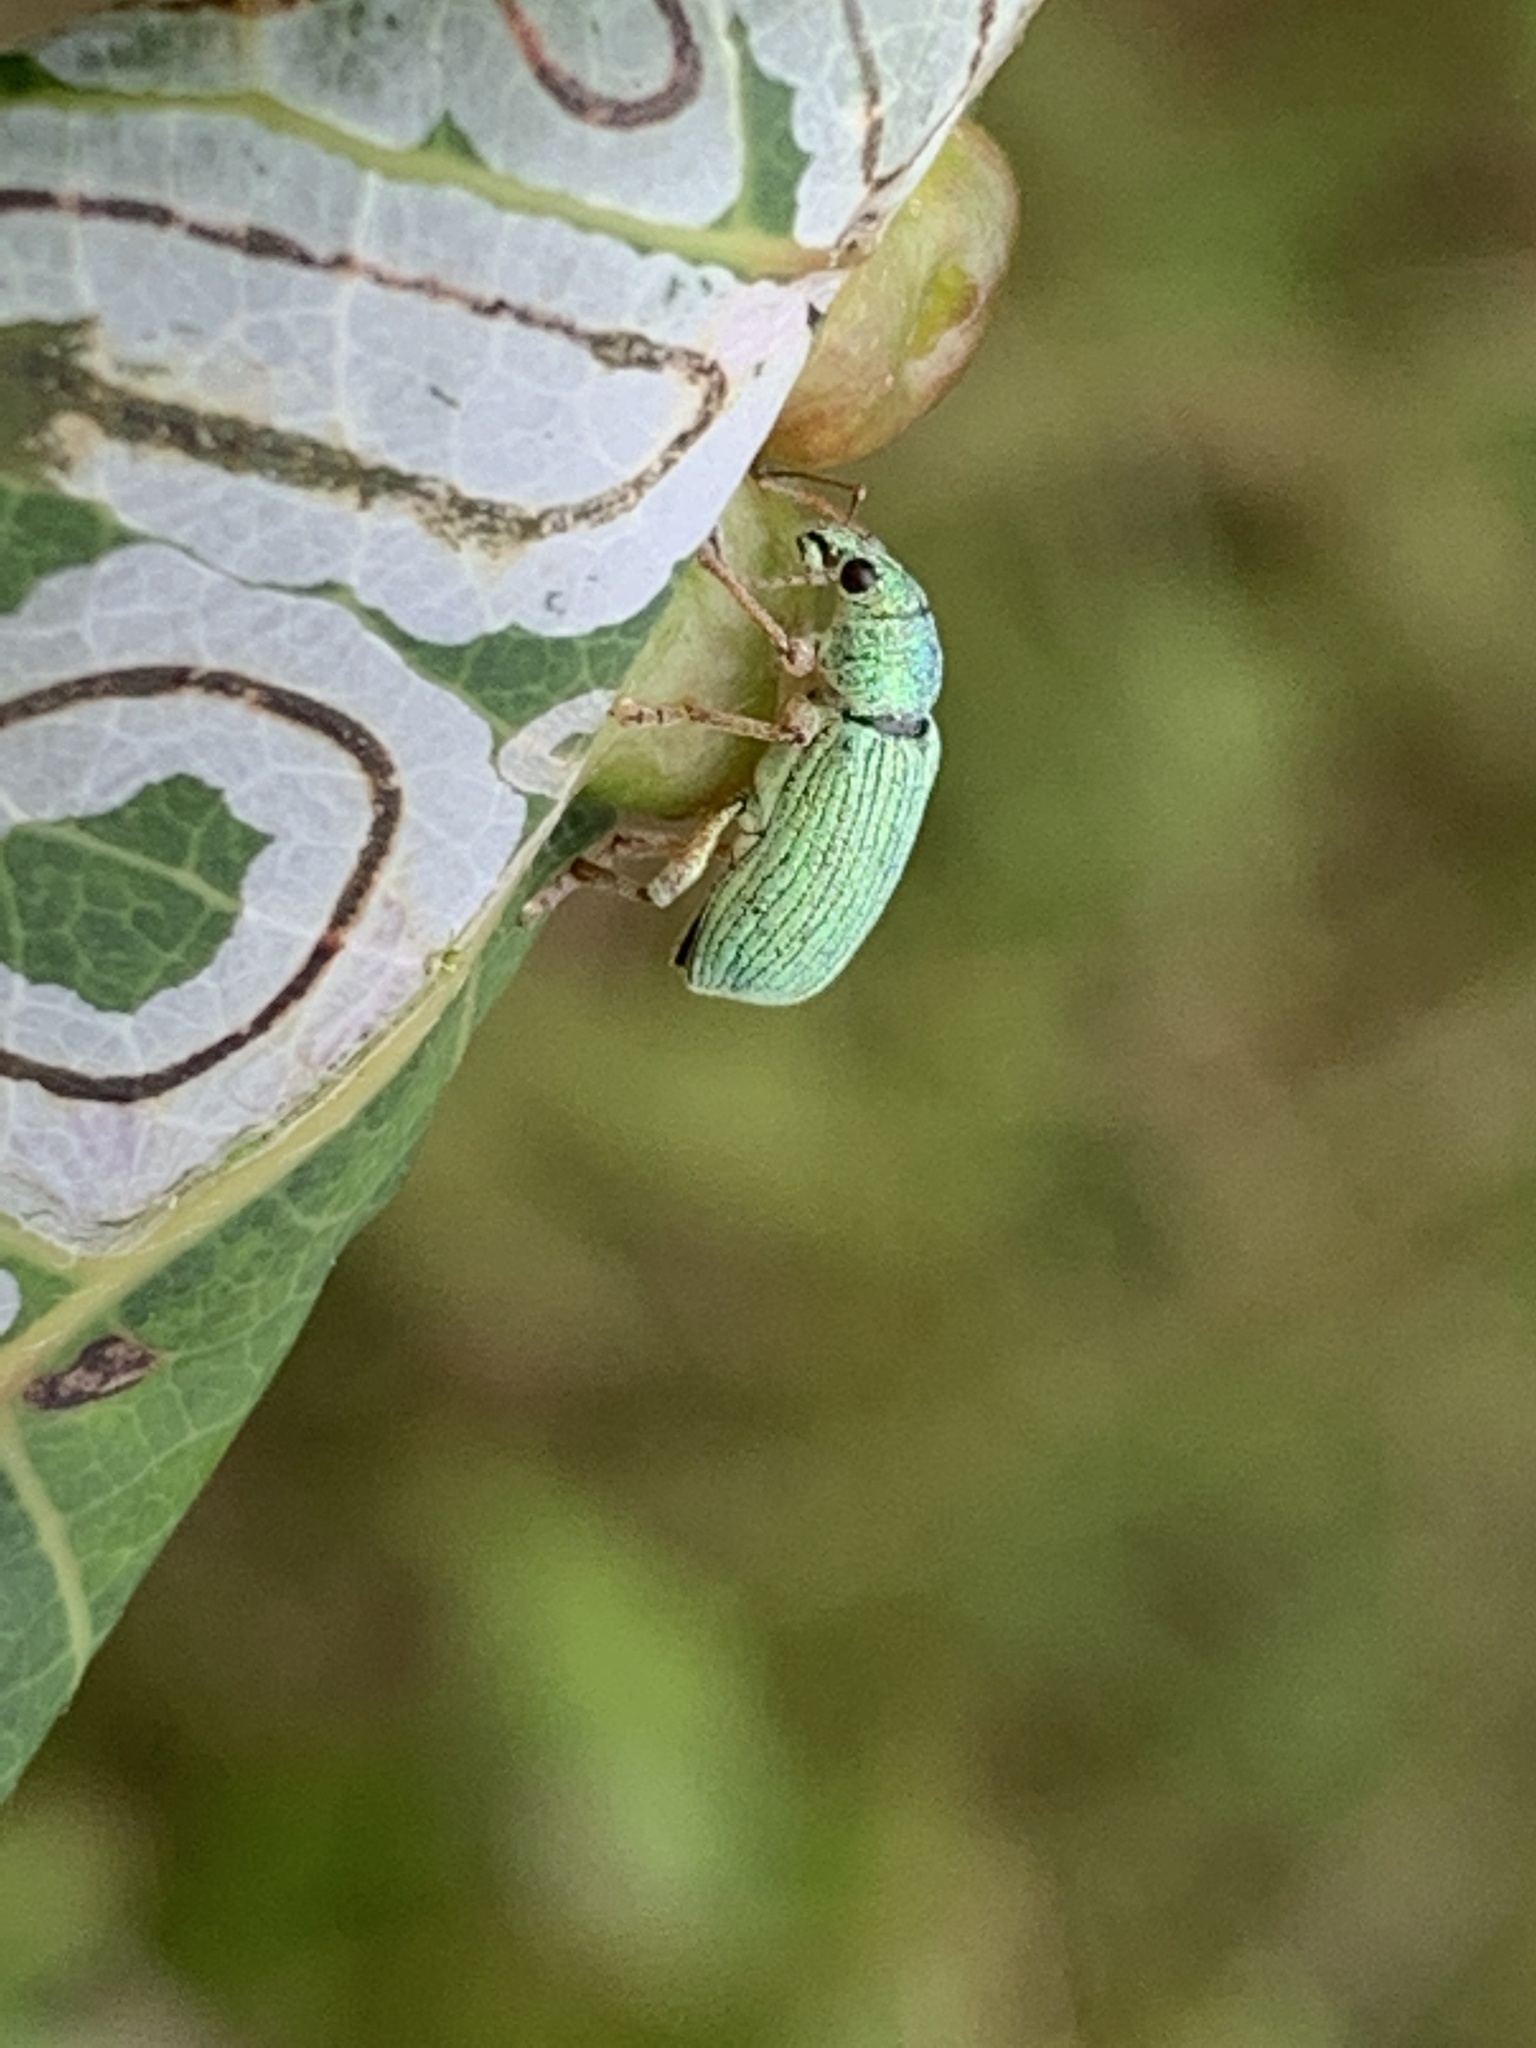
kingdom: Animalia
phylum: Arthropoda
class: Insecta
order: Coleoptera
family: Curculionidae
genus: Polydrusus
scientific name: Polydrusus formosus
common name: Weevil
